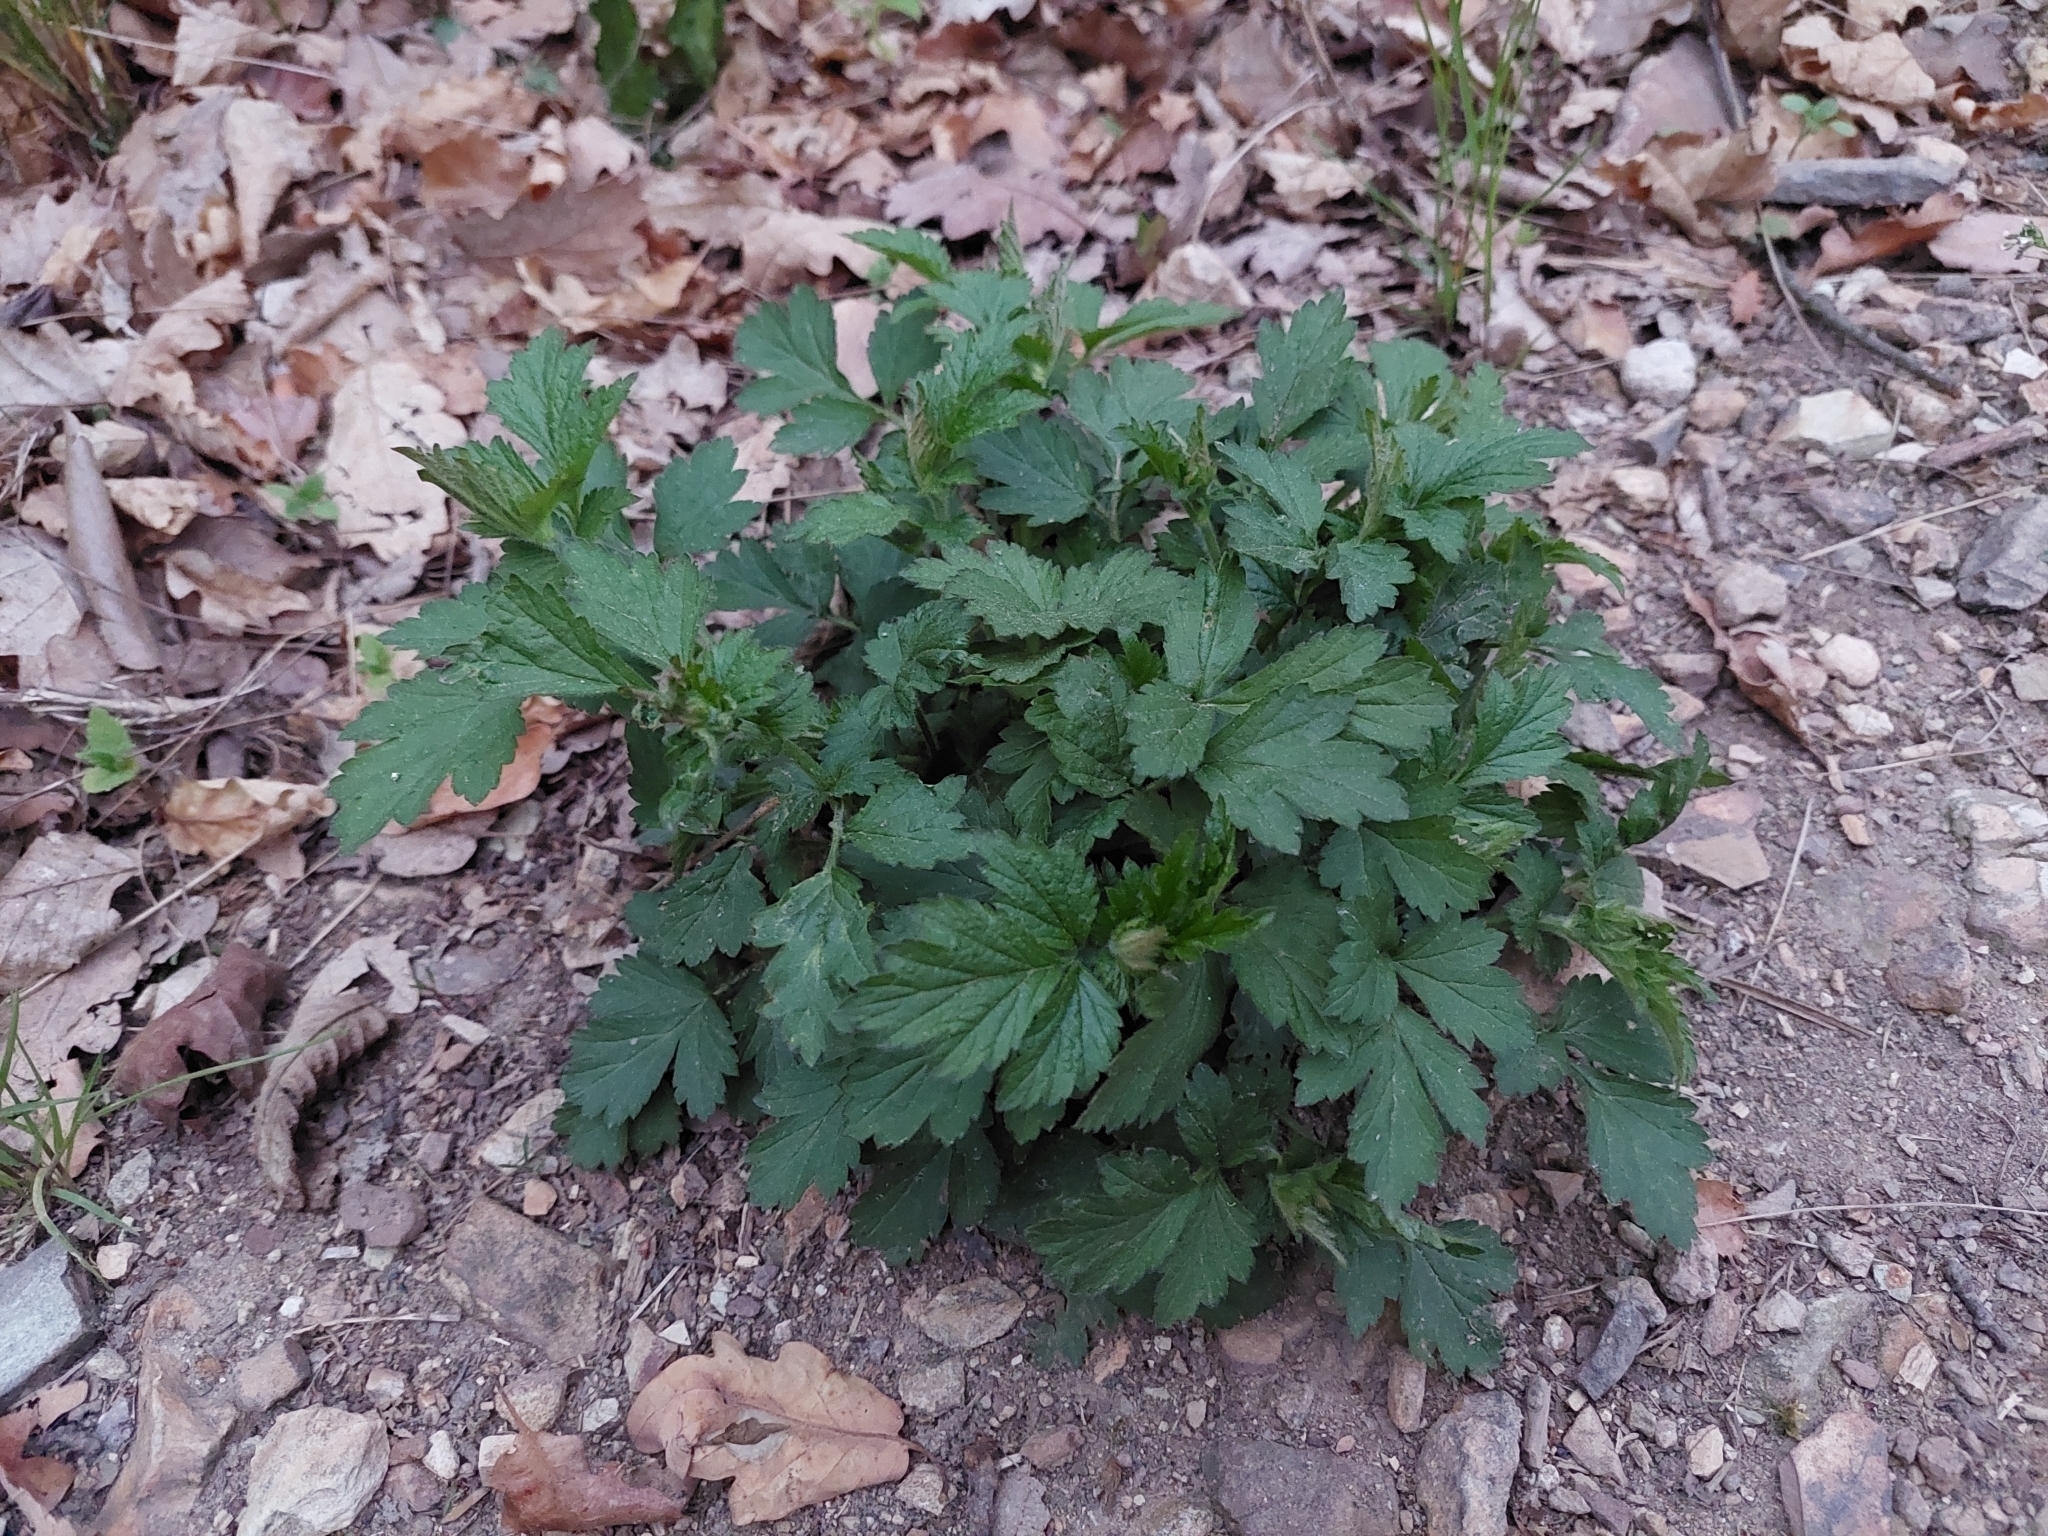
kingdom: Plantae
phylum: Tracheophyta
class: Magnoliopsida
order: Rosales
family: Rosaceae
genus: Geum
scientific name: Geum urbanum
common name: Wood avens
